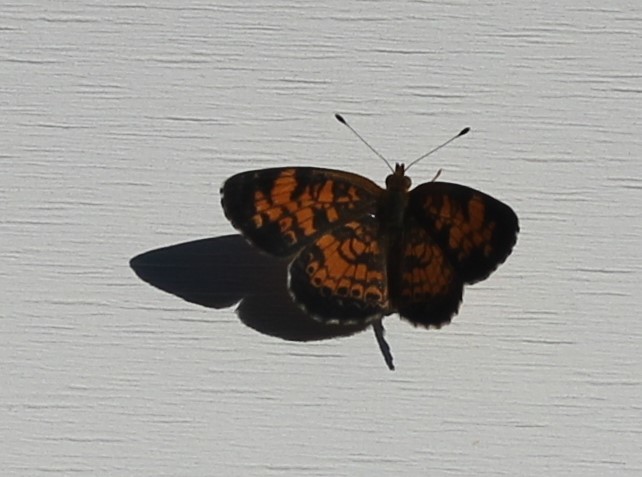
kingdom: Animalia
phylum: Arthropoda
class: Insecta
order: Lepidoptera
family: Nymphalidae
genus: Phyciodes
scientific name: Phyciodes tharos
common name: Pearl crescent
